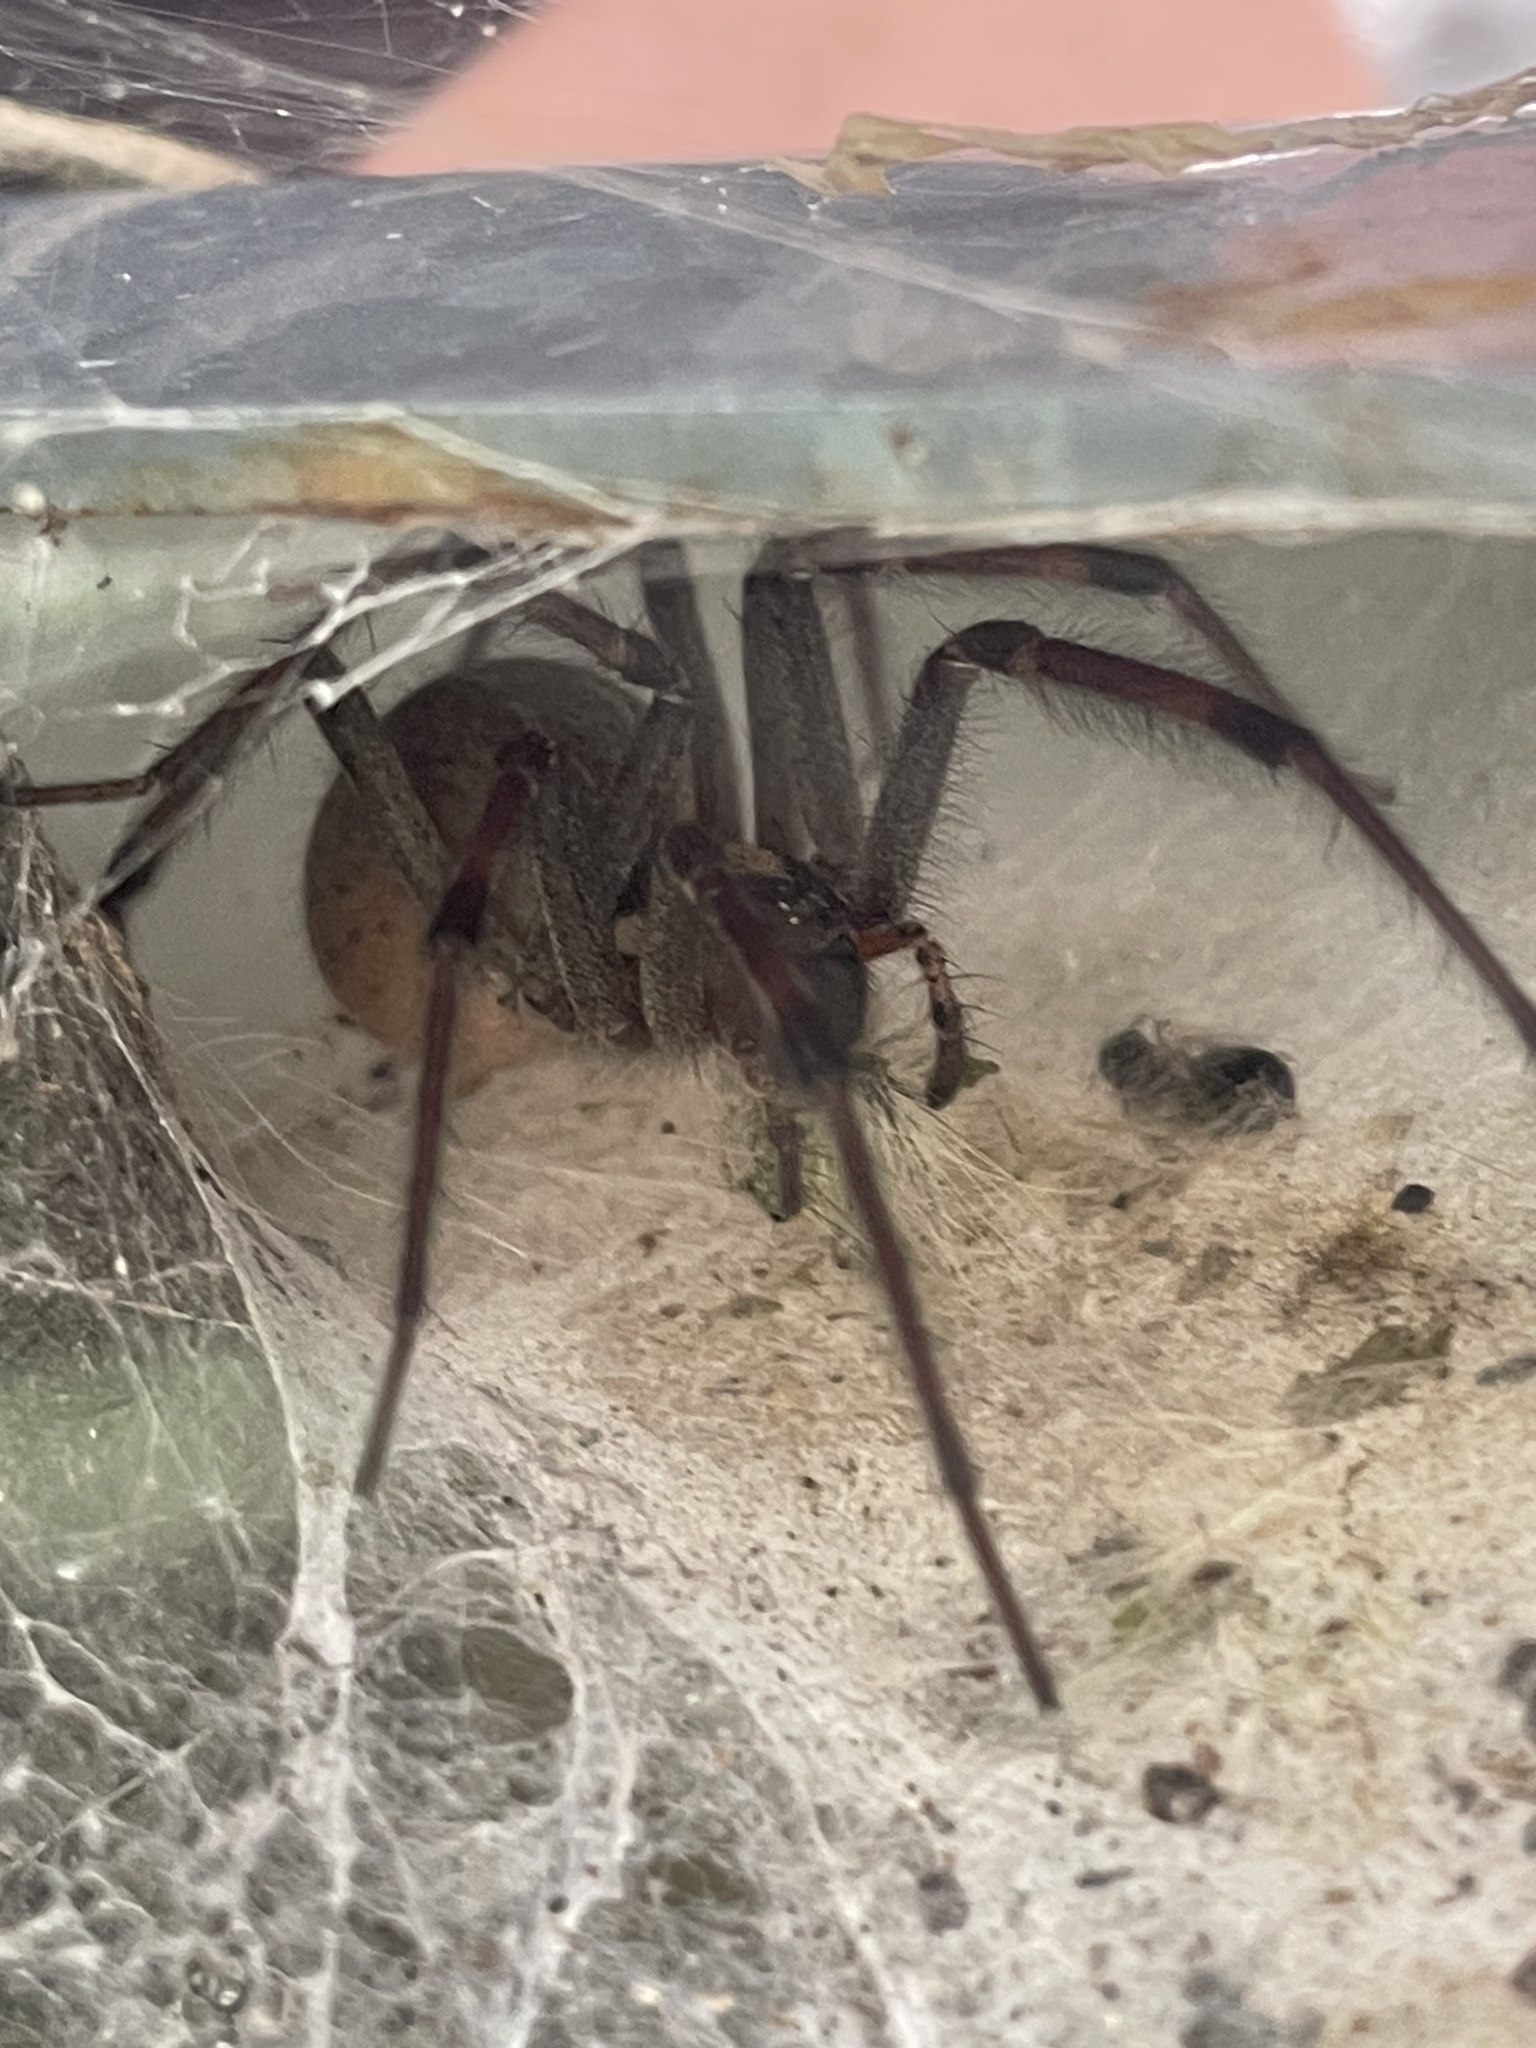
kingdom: Animalia
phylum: Arthropoda
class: Arachnida
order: Araneae
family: Agelenidae
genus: Agelenopsis
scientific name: Agelenopsis
